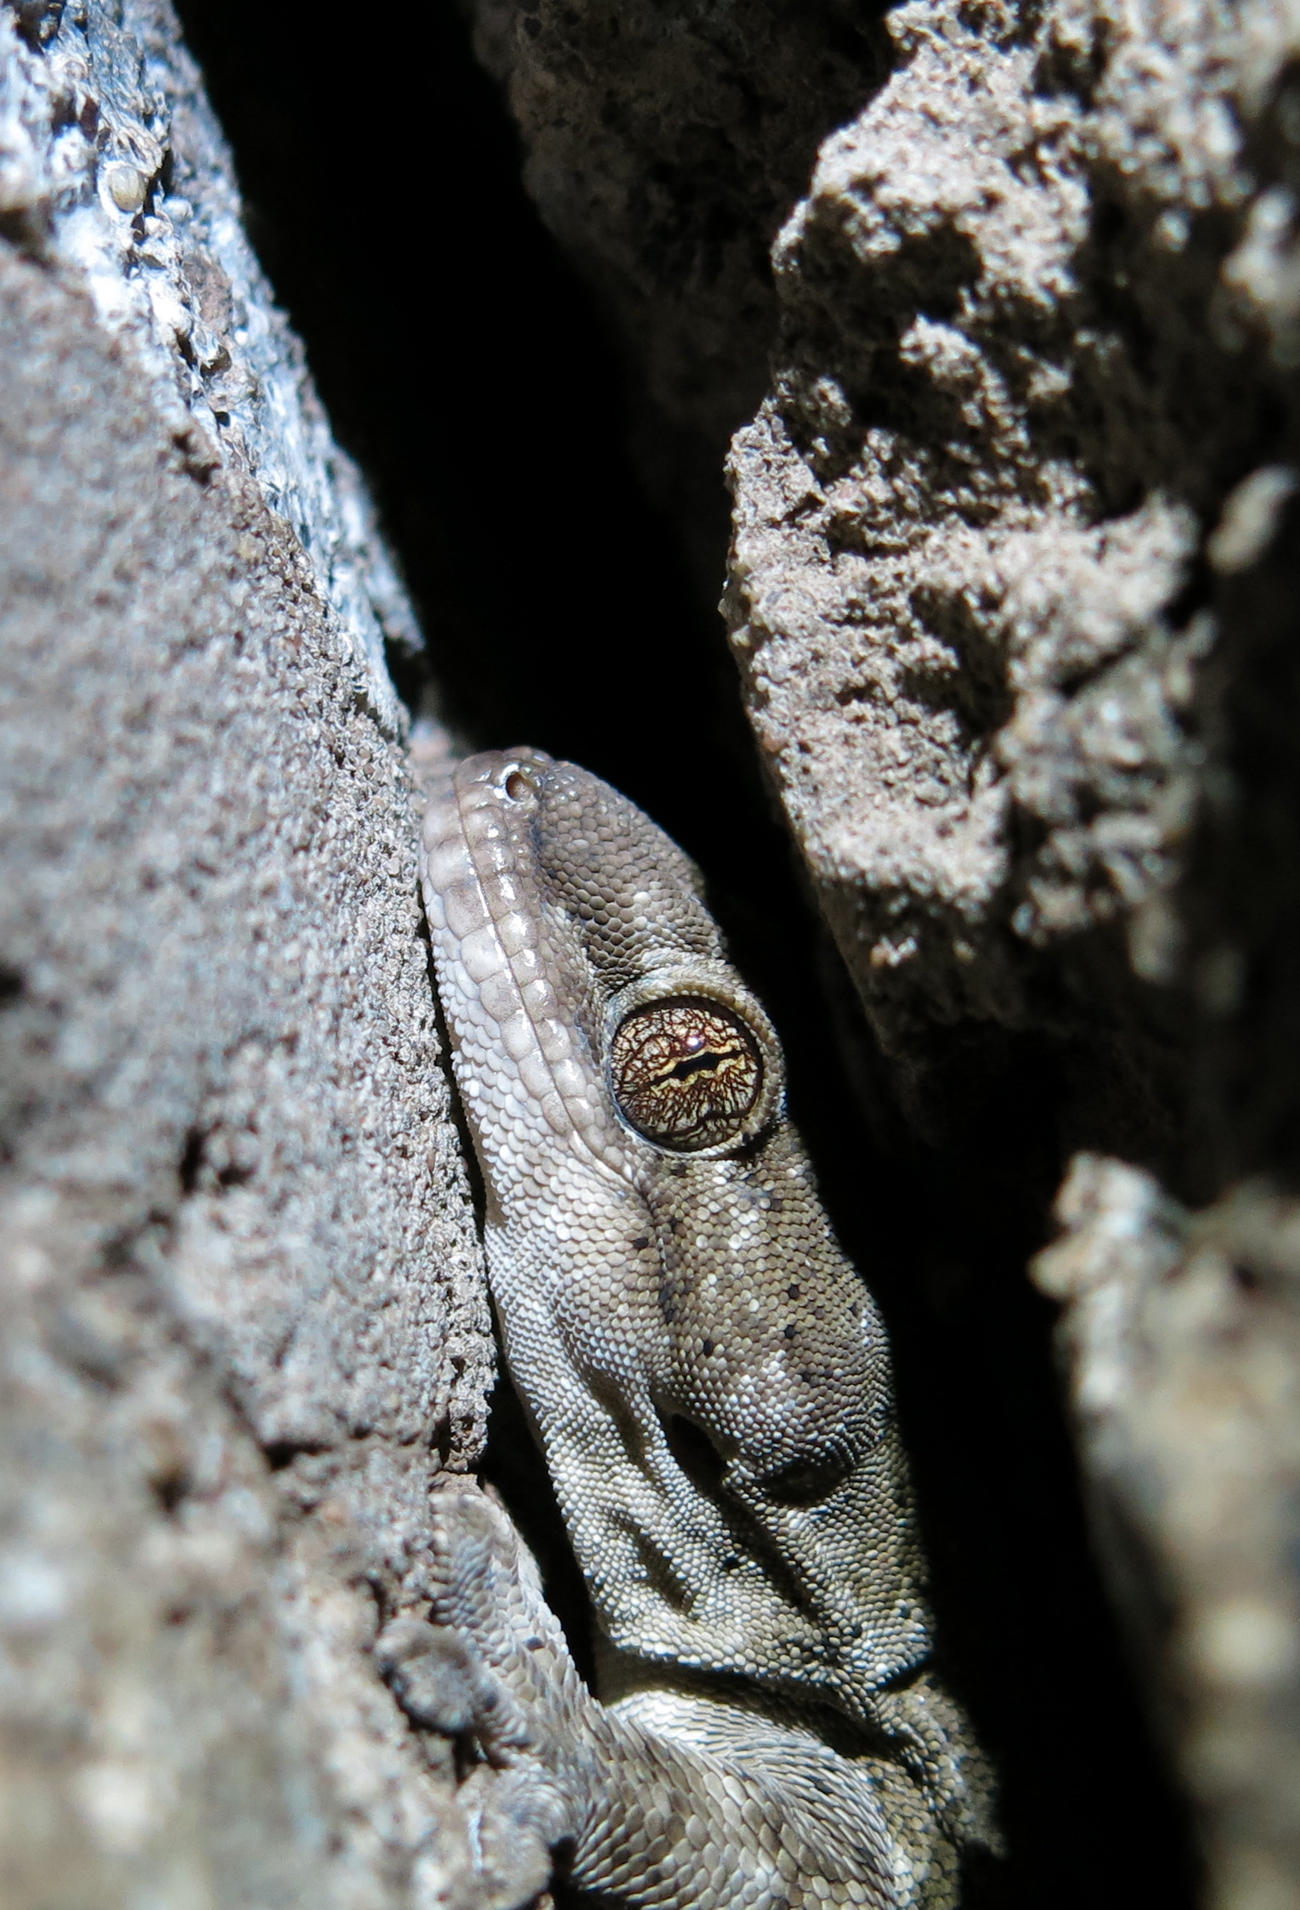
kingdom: Animalia
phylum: Chordata
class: Squamata
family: Gekkonidae
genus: Homopholis
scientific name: Homopholis walbergii
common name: Wahlberg’s velvet gecko
